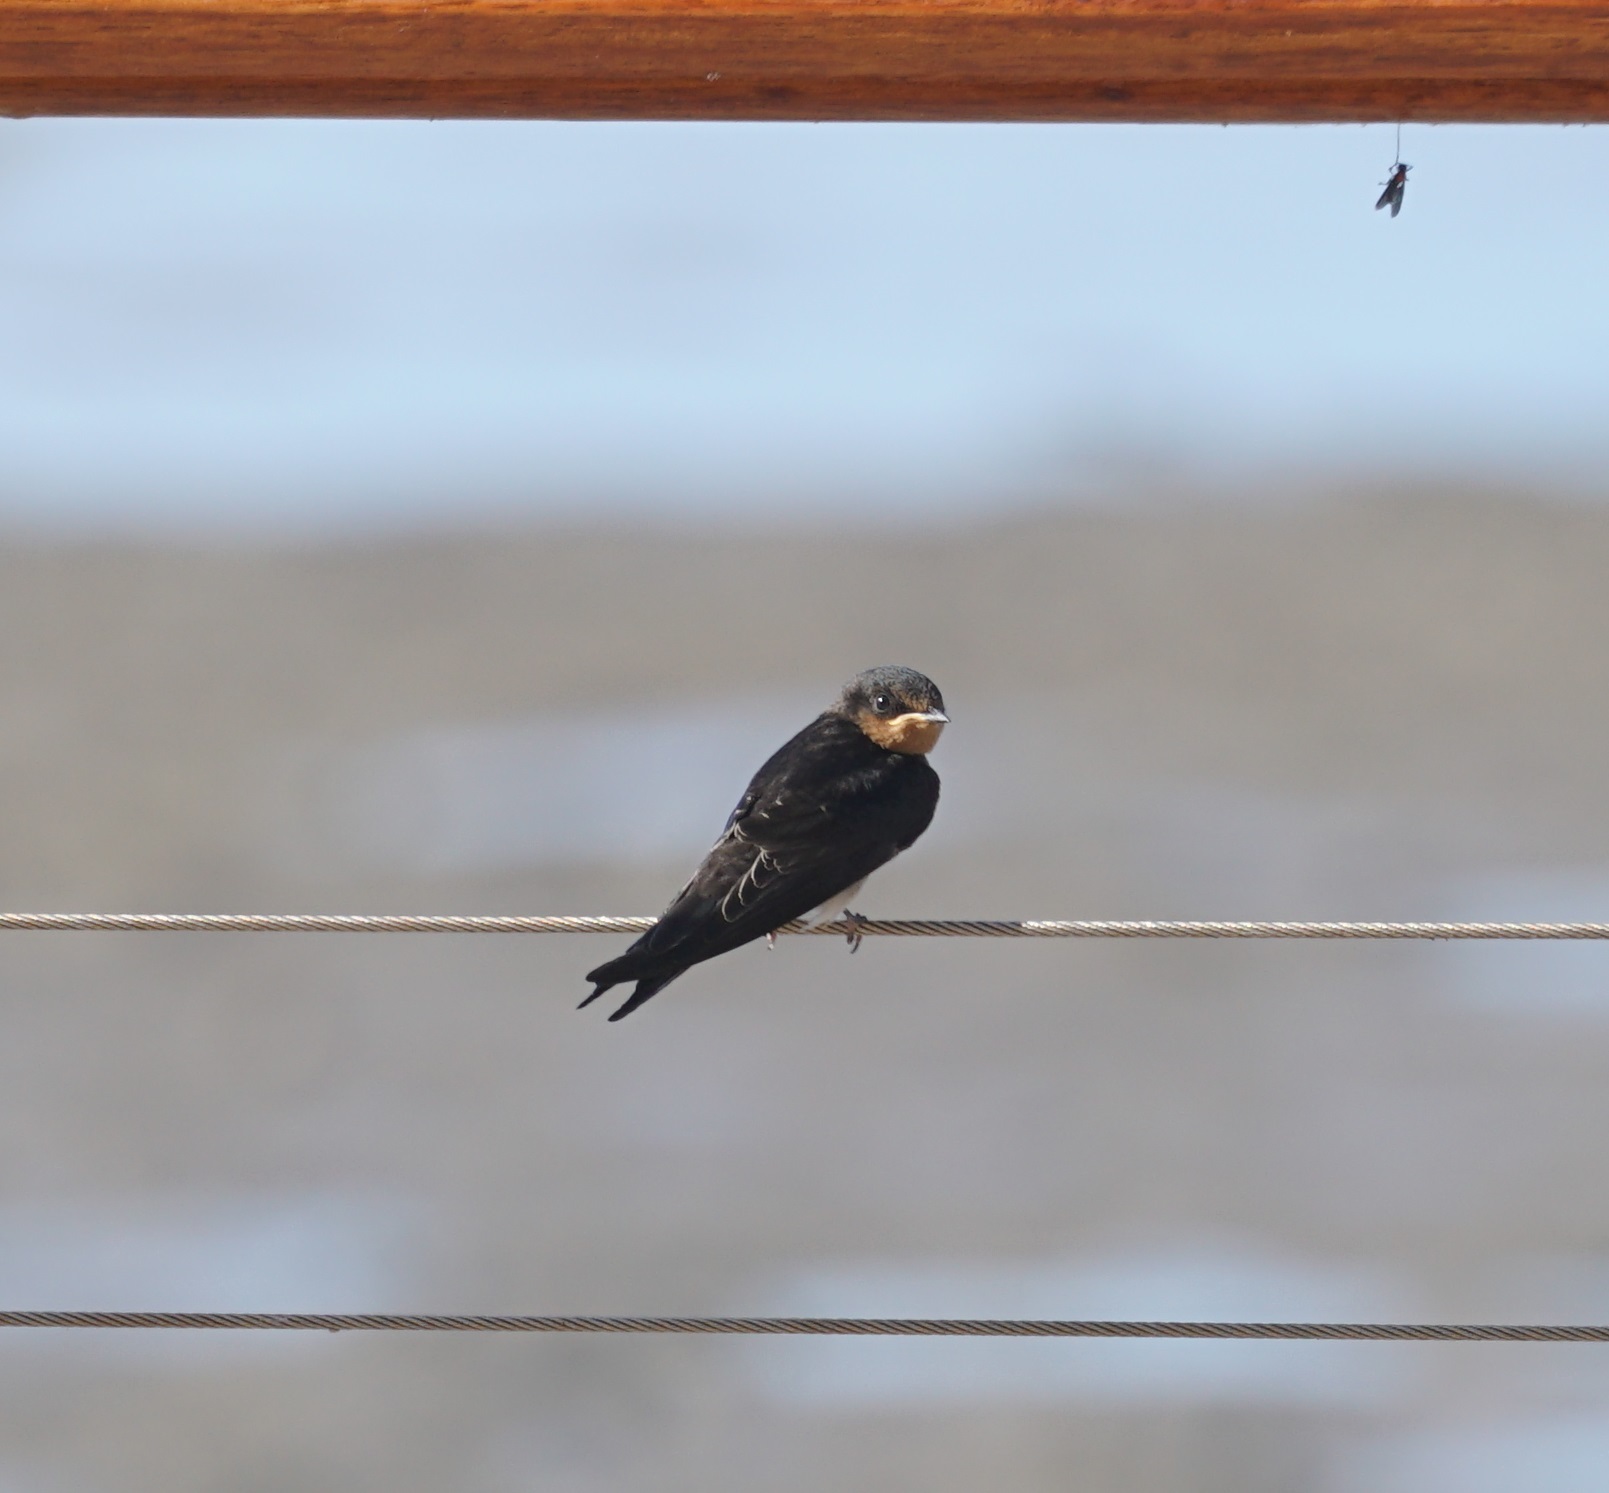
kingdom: Animalia
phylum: Chordata
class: Aves
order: Passeriformes
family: Hirundinidae
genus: Hirundo
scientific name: Hirundo neoxena
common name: Welcome swallow
